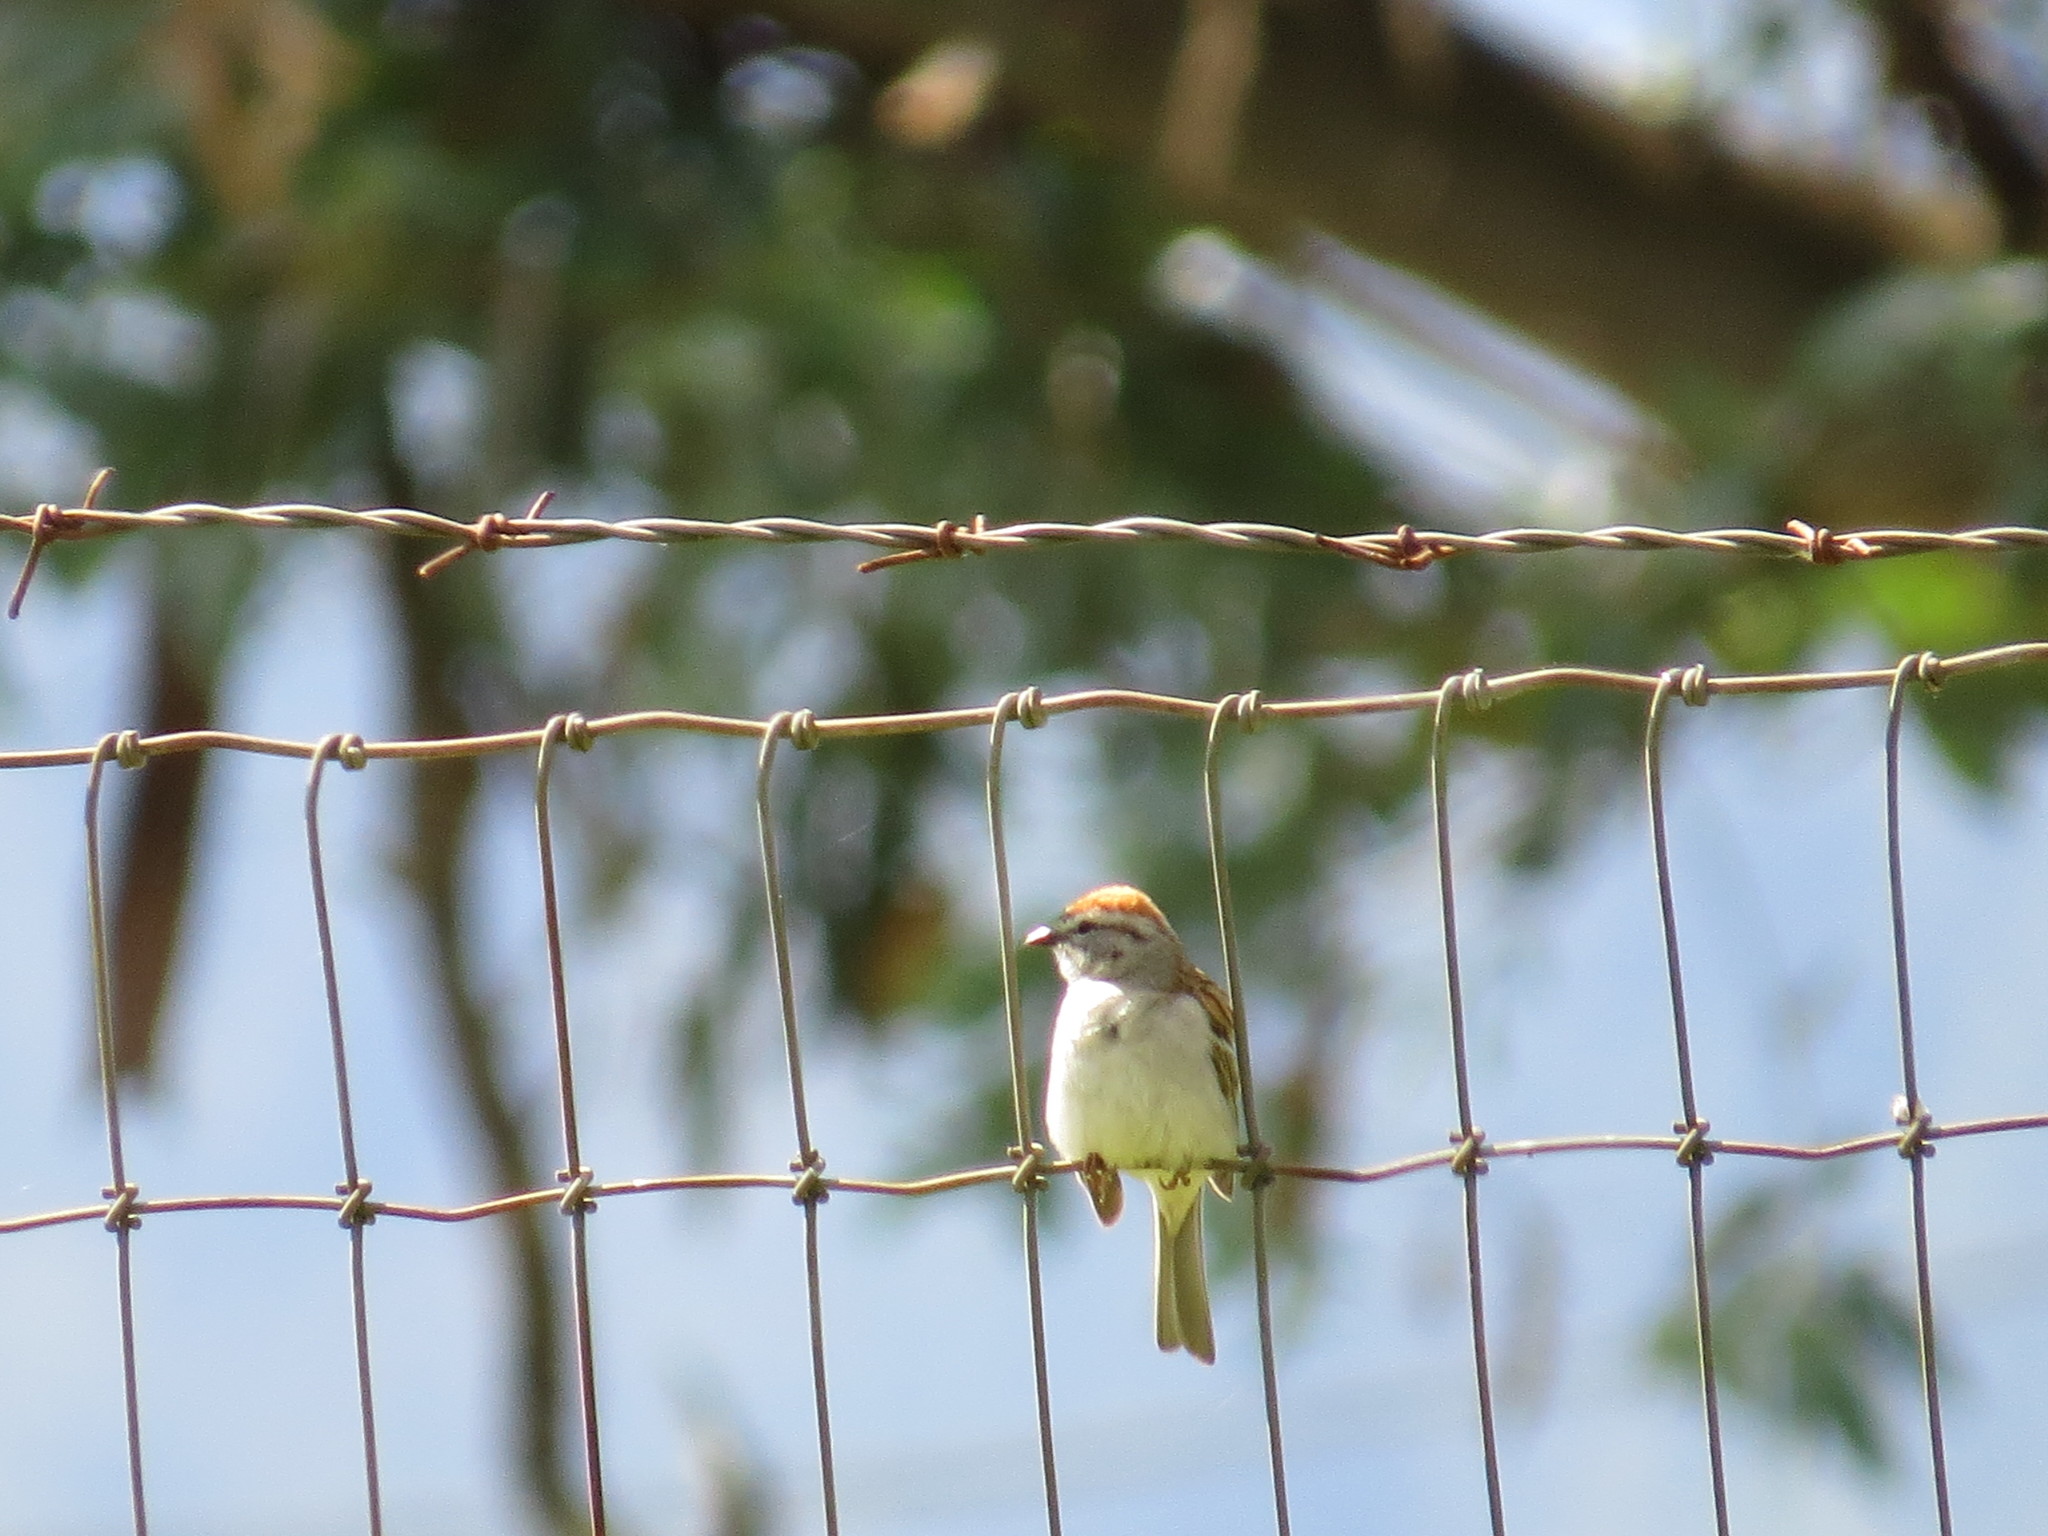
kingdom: Animalia
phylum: Chordata
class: Aves
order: Passeriformes
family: Passerellidae
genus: Spizella
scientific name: Spizella passerina
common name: Chipping sparrow
